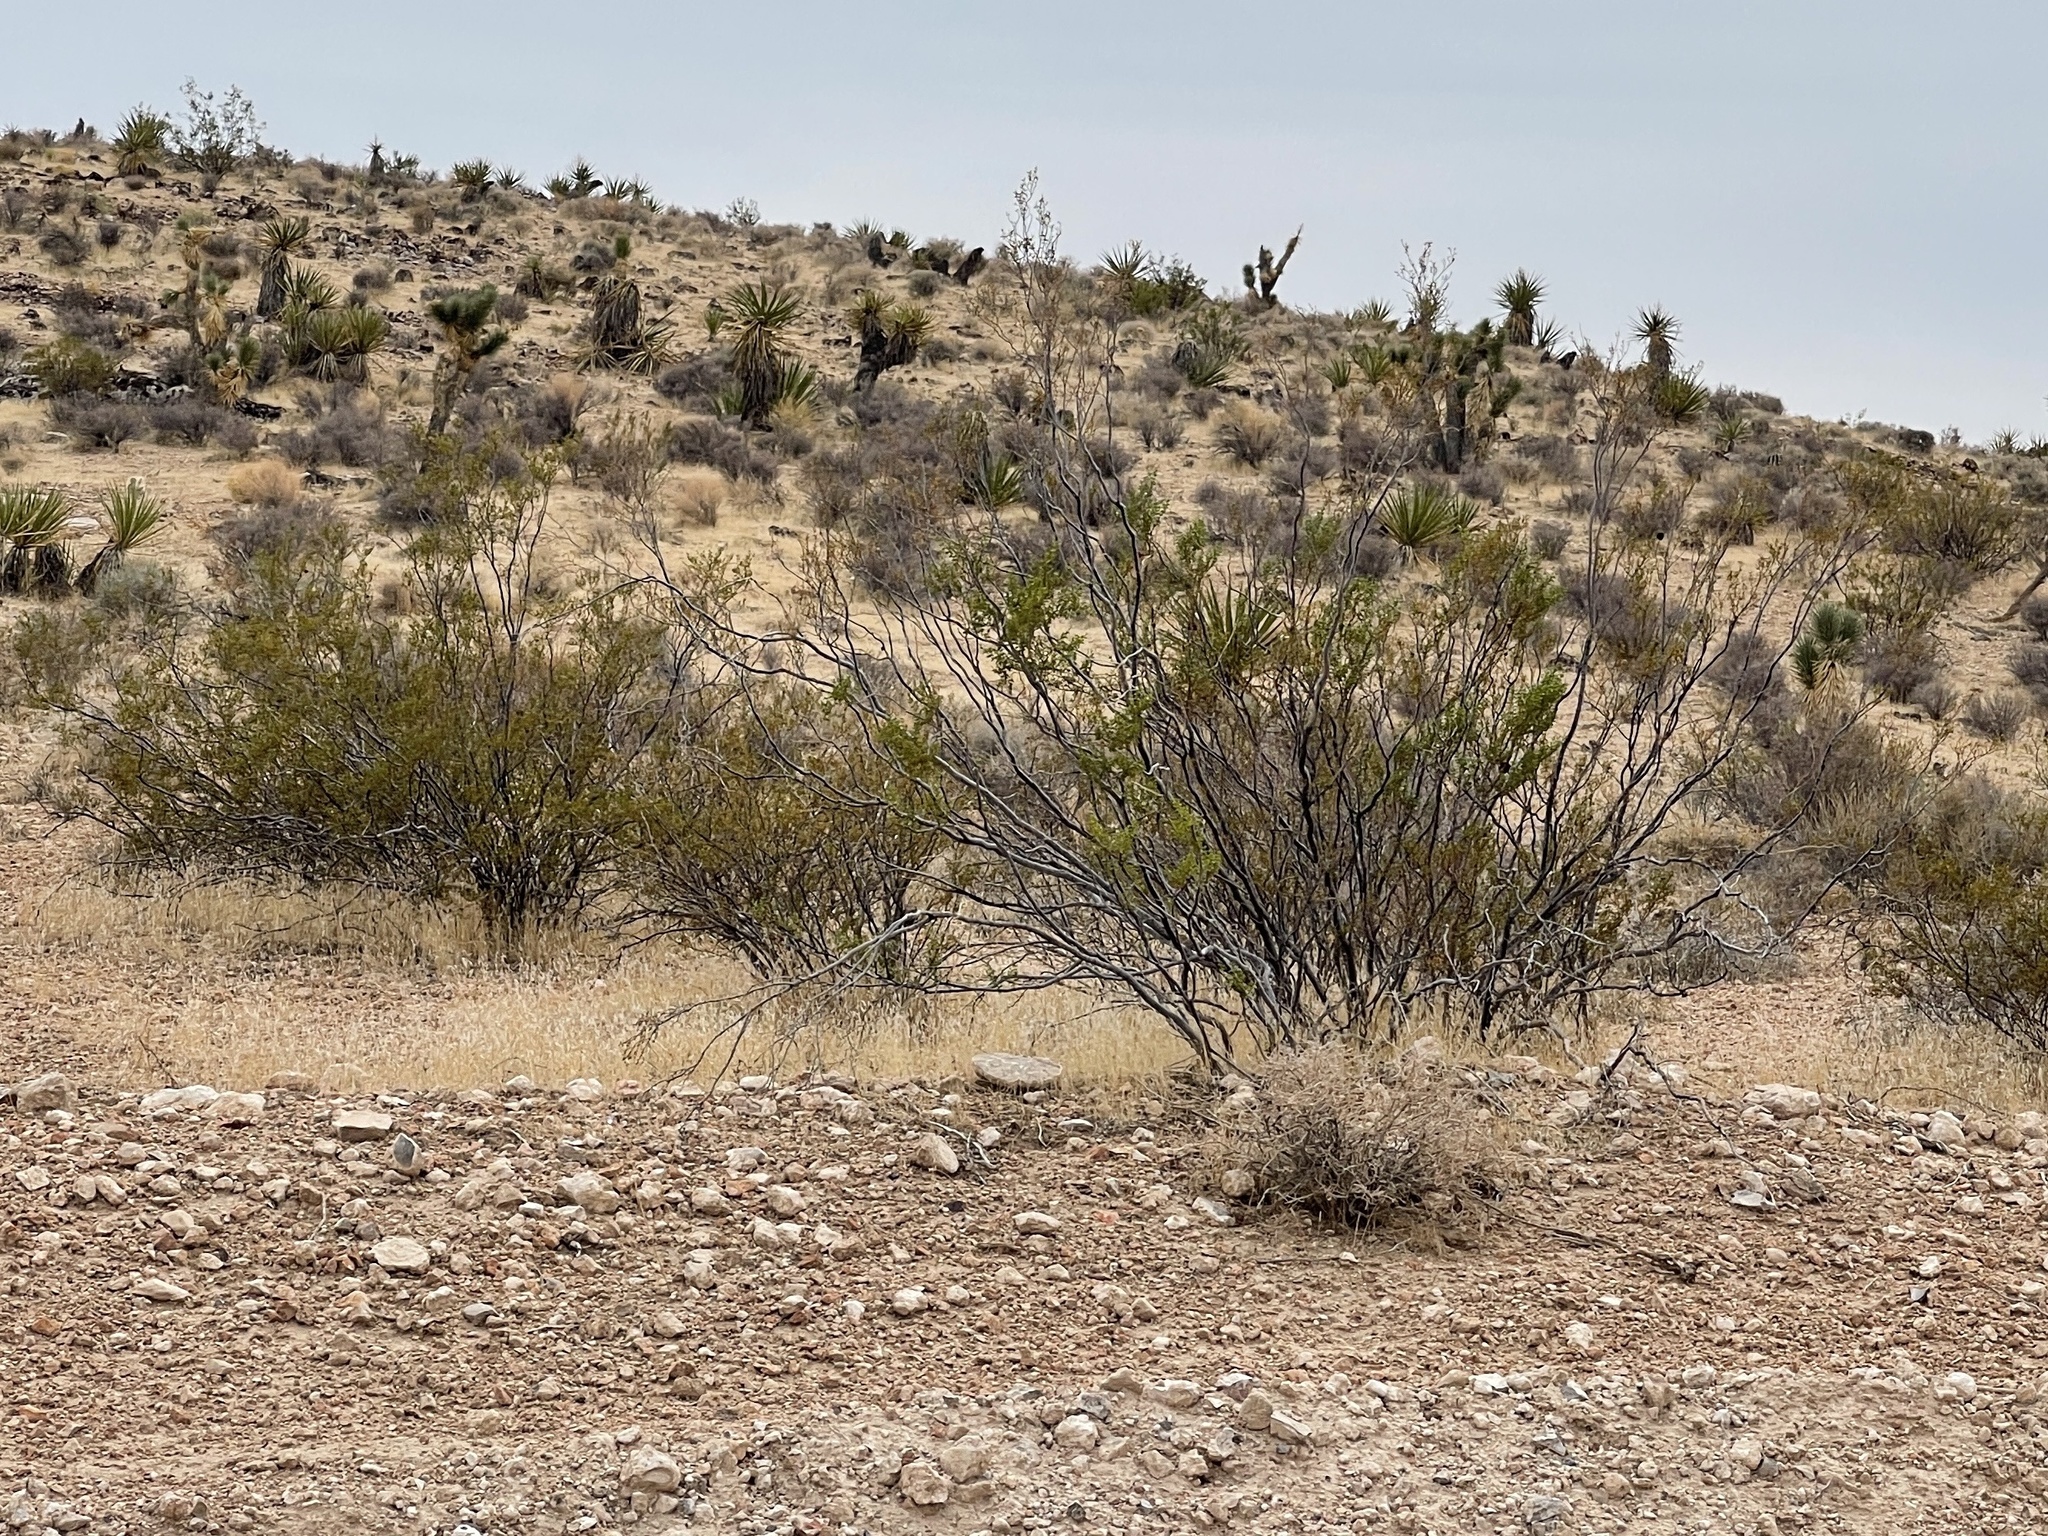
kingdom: Plantae
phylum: Tracheophyta
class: Magnoliopsida
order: Zygophyllales
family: Zygophyllaceae
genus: Larrea
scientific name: Larrea tridentata
